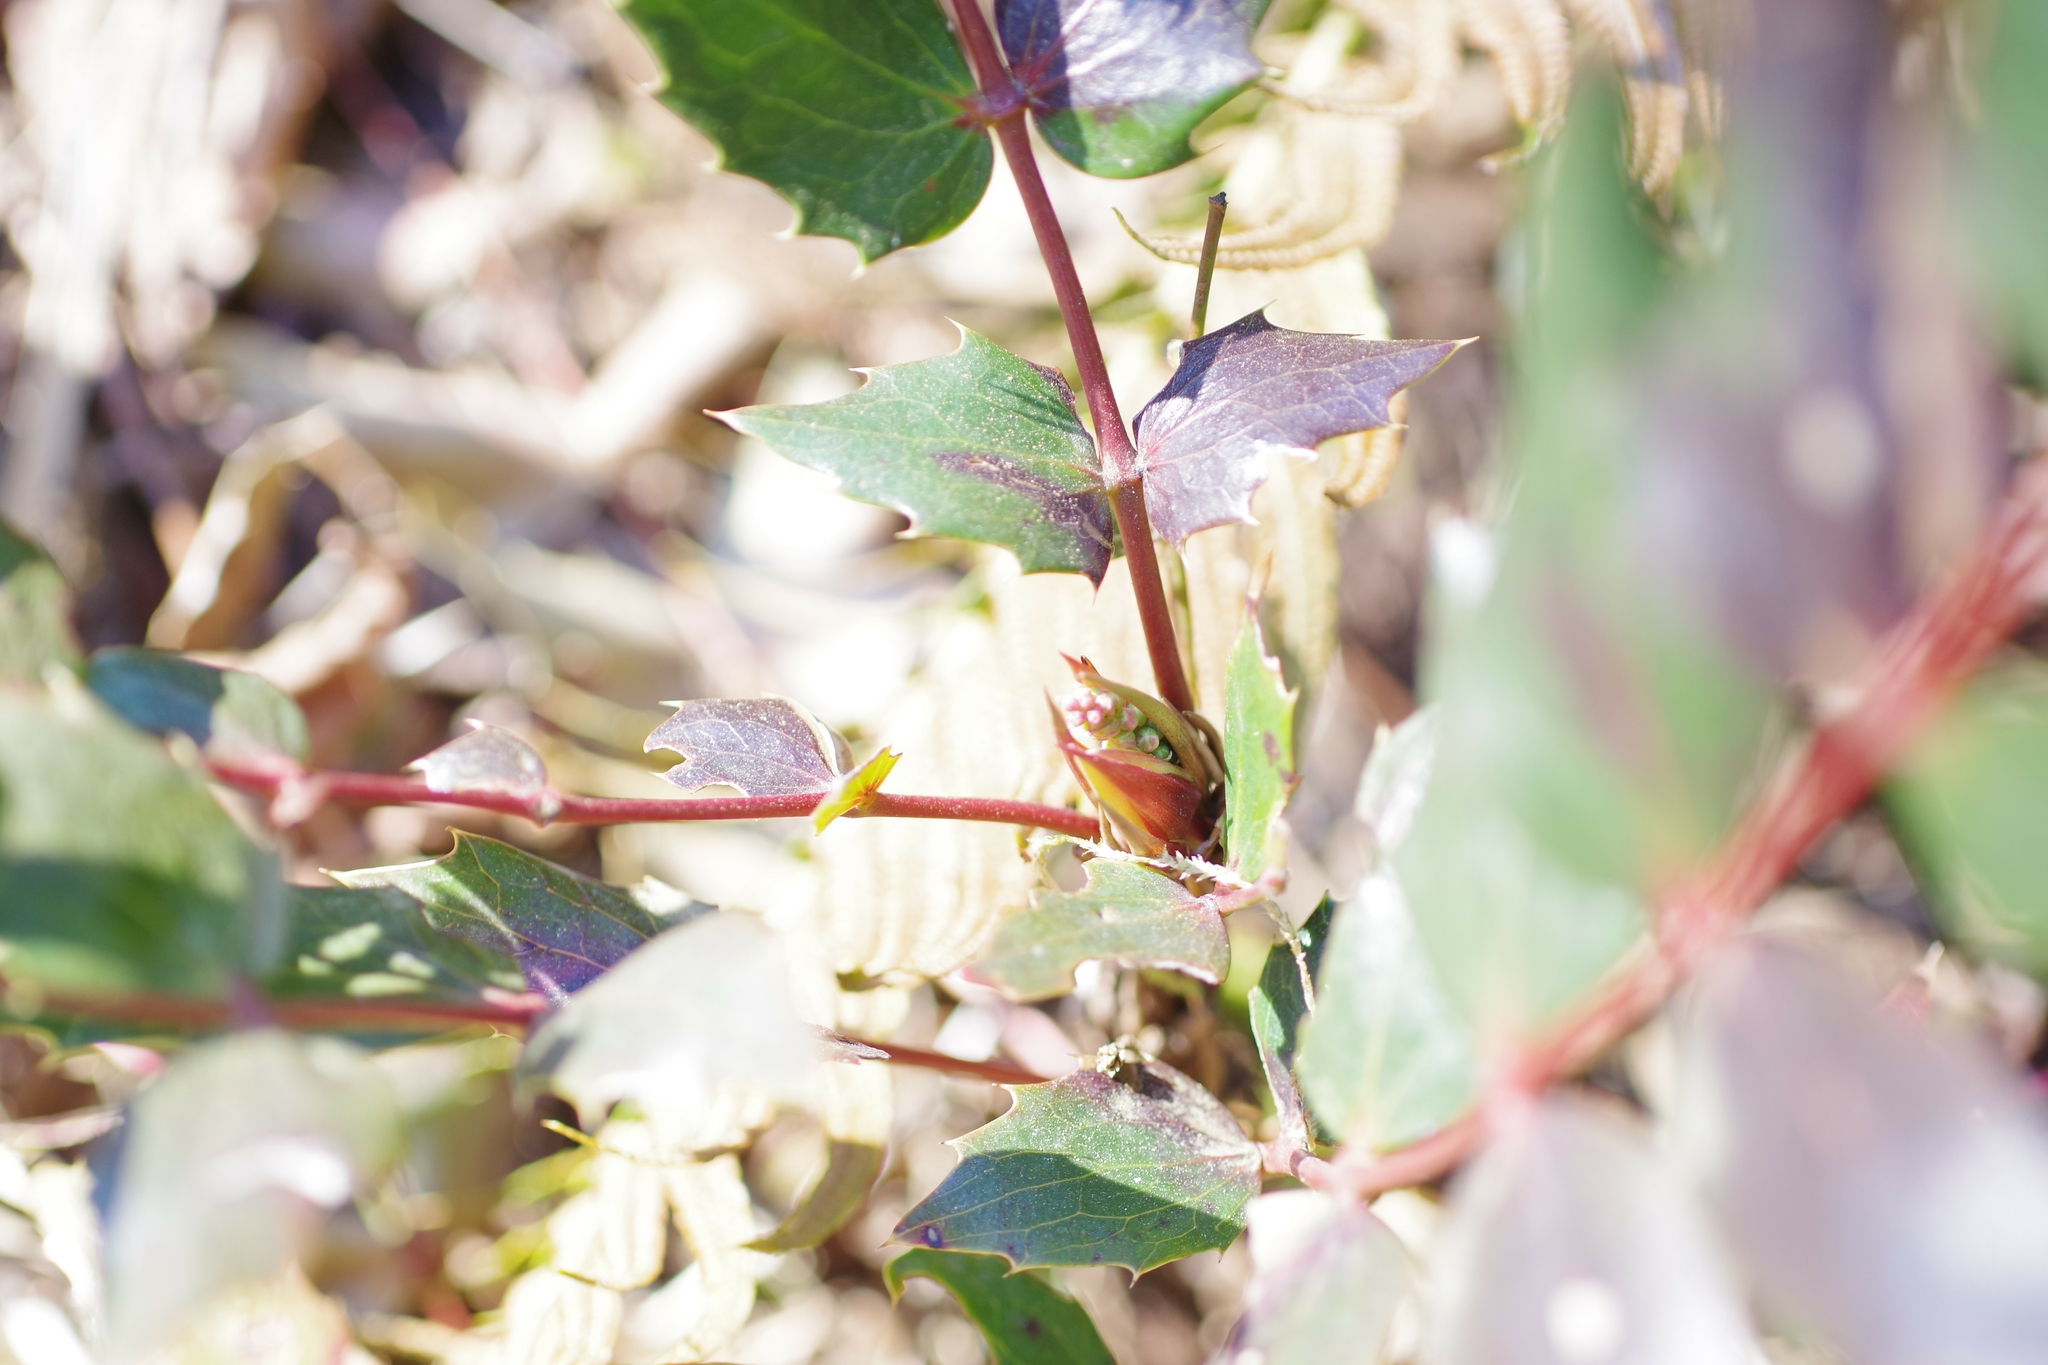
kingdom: Plantae
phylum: Tracheophyta
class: Magnoliopsida
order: Ranunculales
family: Berberidaceae
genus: Mahonia
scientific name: Mahonia nervosa
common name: Cascade oregon-grape
